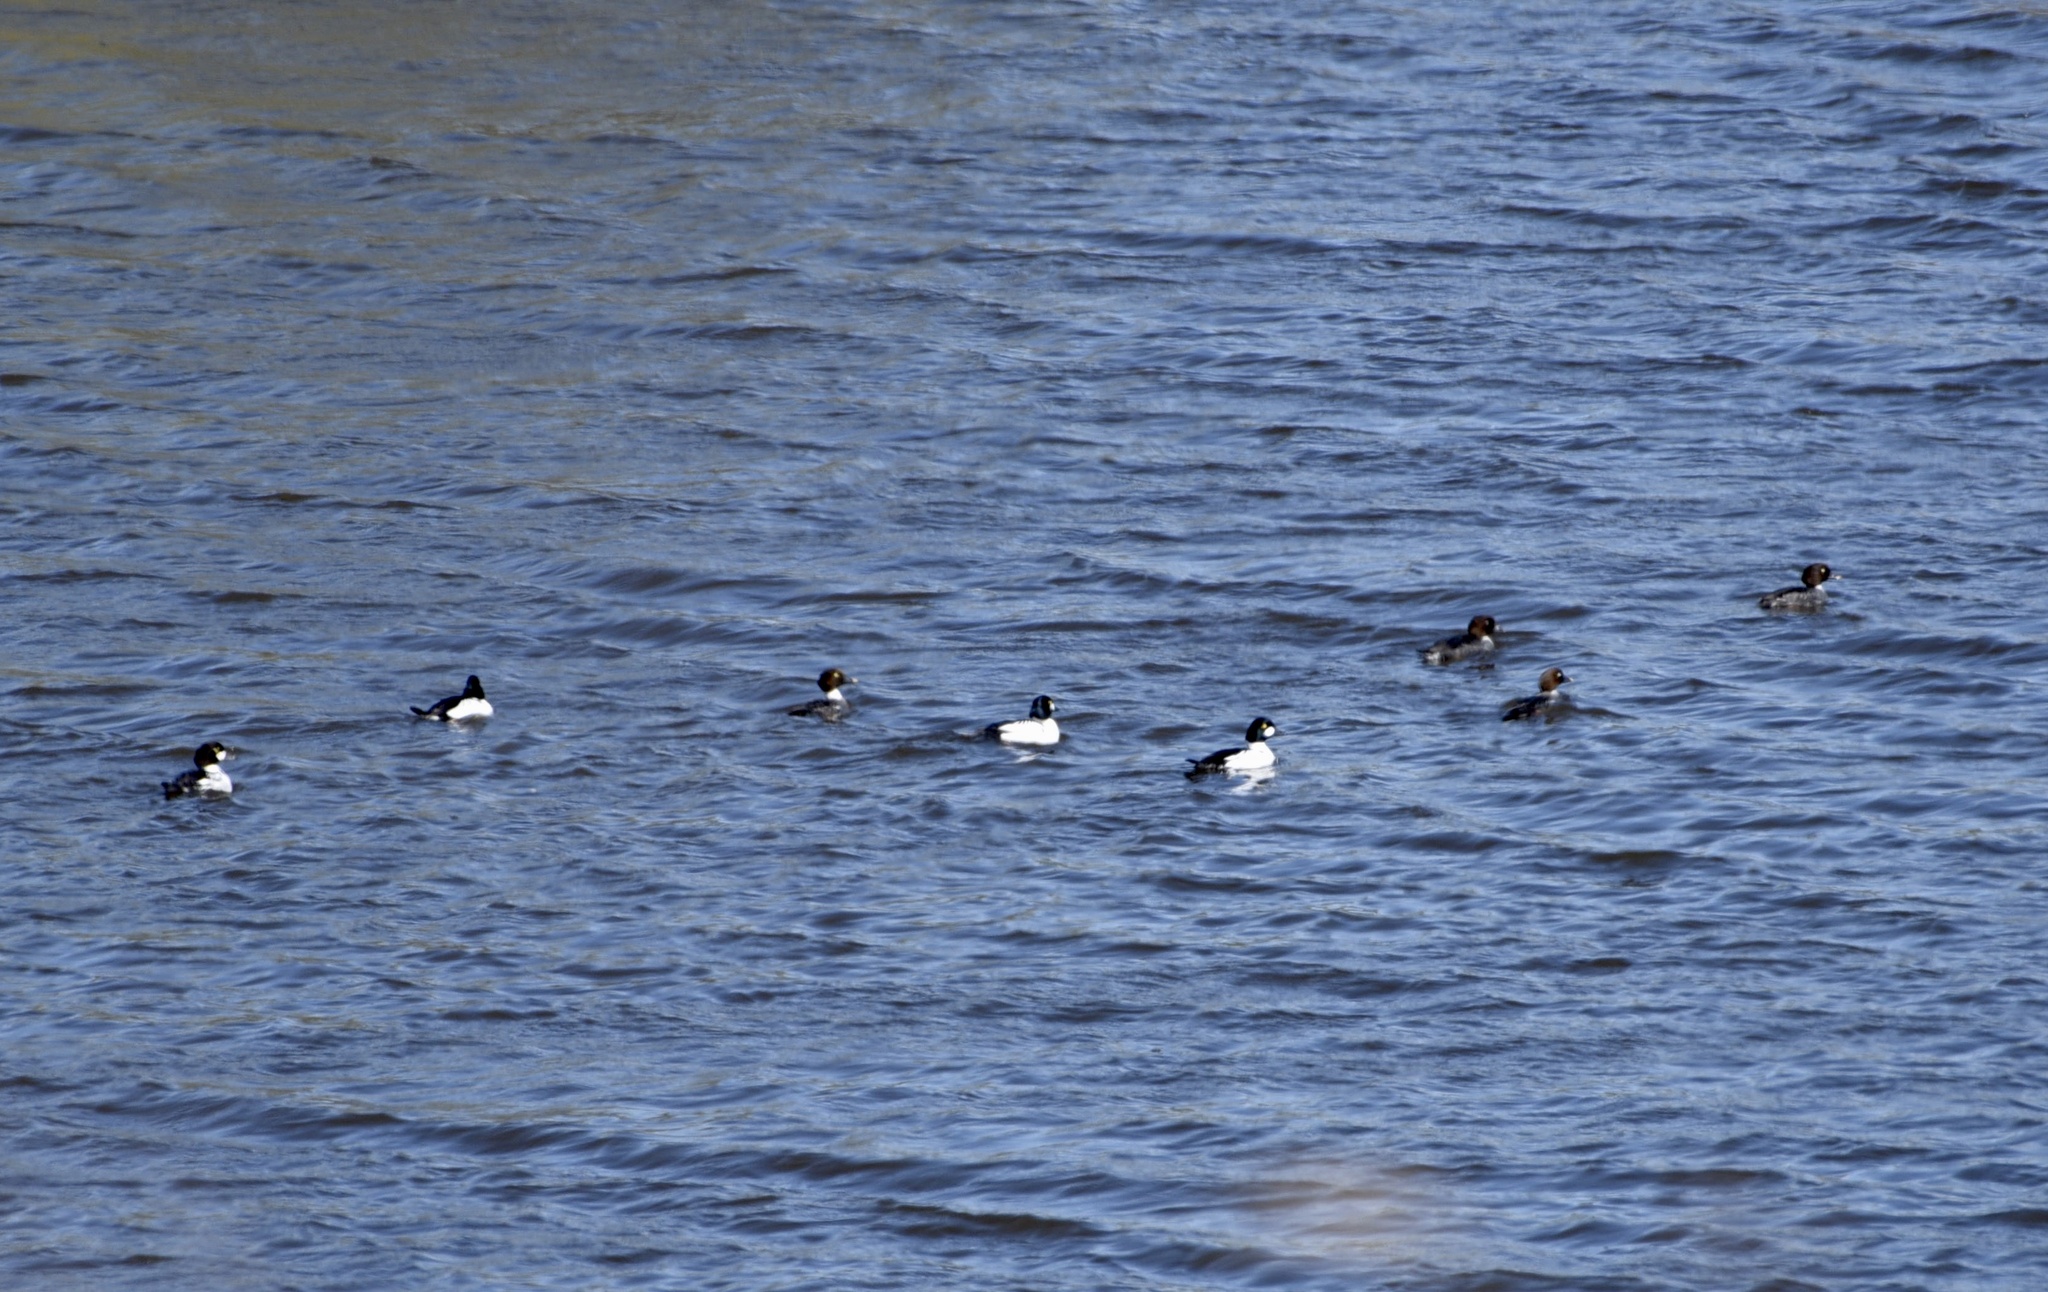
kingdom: Animalia
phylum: Chordata
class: Aves
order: Anseriformes
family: Anatidae
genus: Bucephala
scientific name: Bucephala clangula
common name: Common goldeneye
